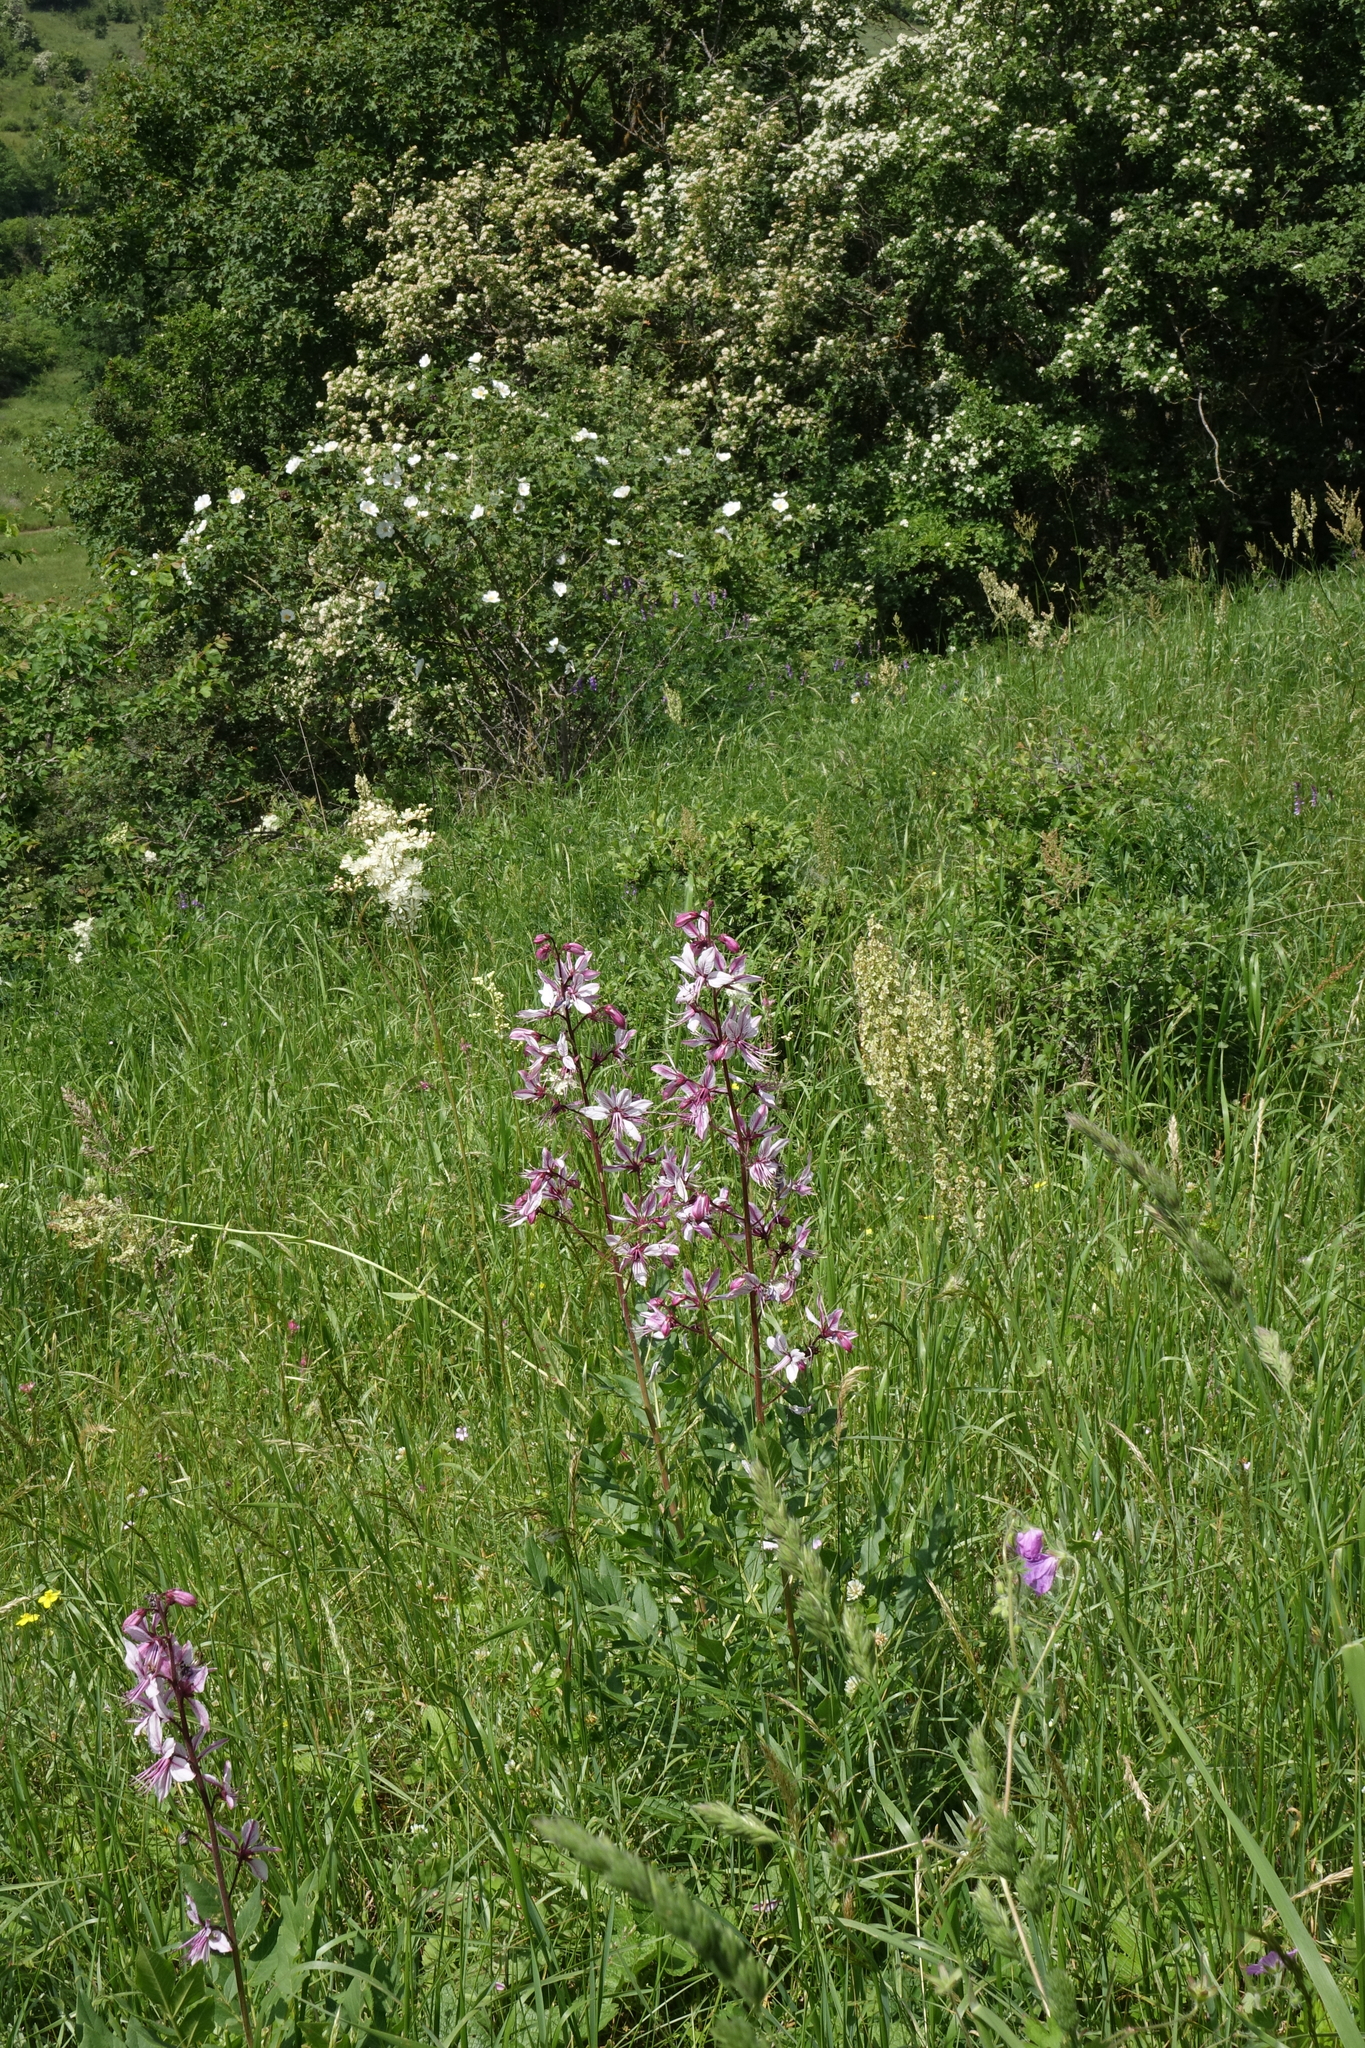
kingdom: Plantae
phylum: Tracheophyta
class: Magnoliopsida
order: Sapindales
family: Rutaceae
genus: Dictamnus
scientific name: Dictamnus albus
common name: Gasplant
